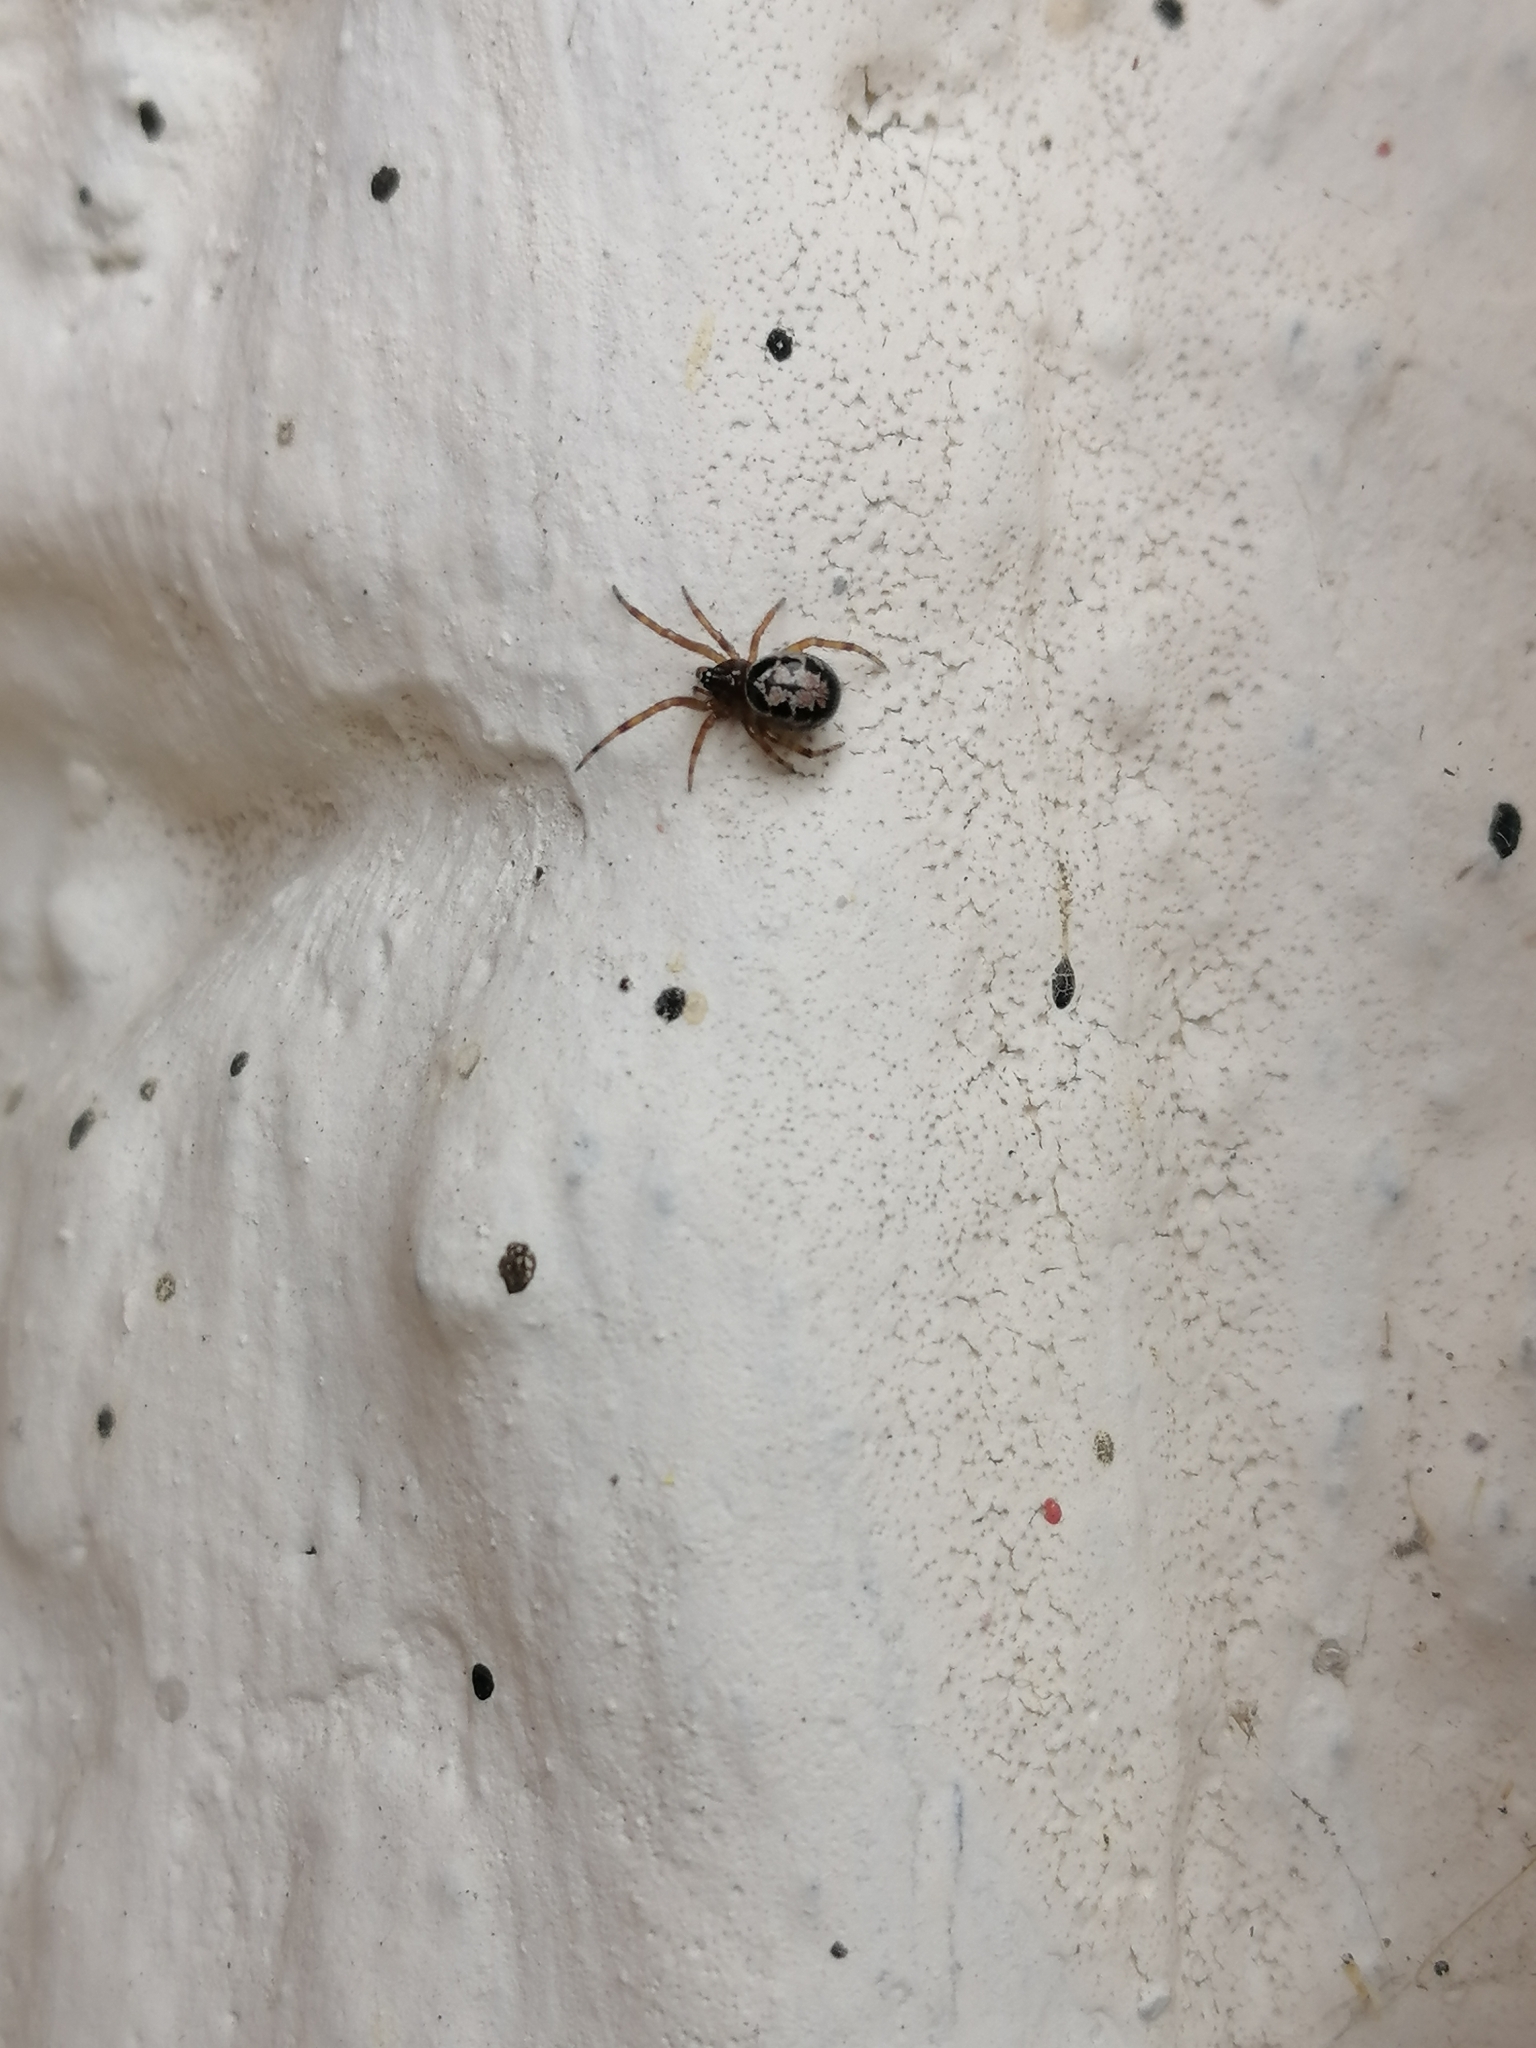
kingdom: Animalia
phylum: Arthropoda
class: Arachnida
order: Araneae
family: Theridiidae
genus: Steatoda
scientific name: Steatoda nobilis
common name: Cobweb weaver
